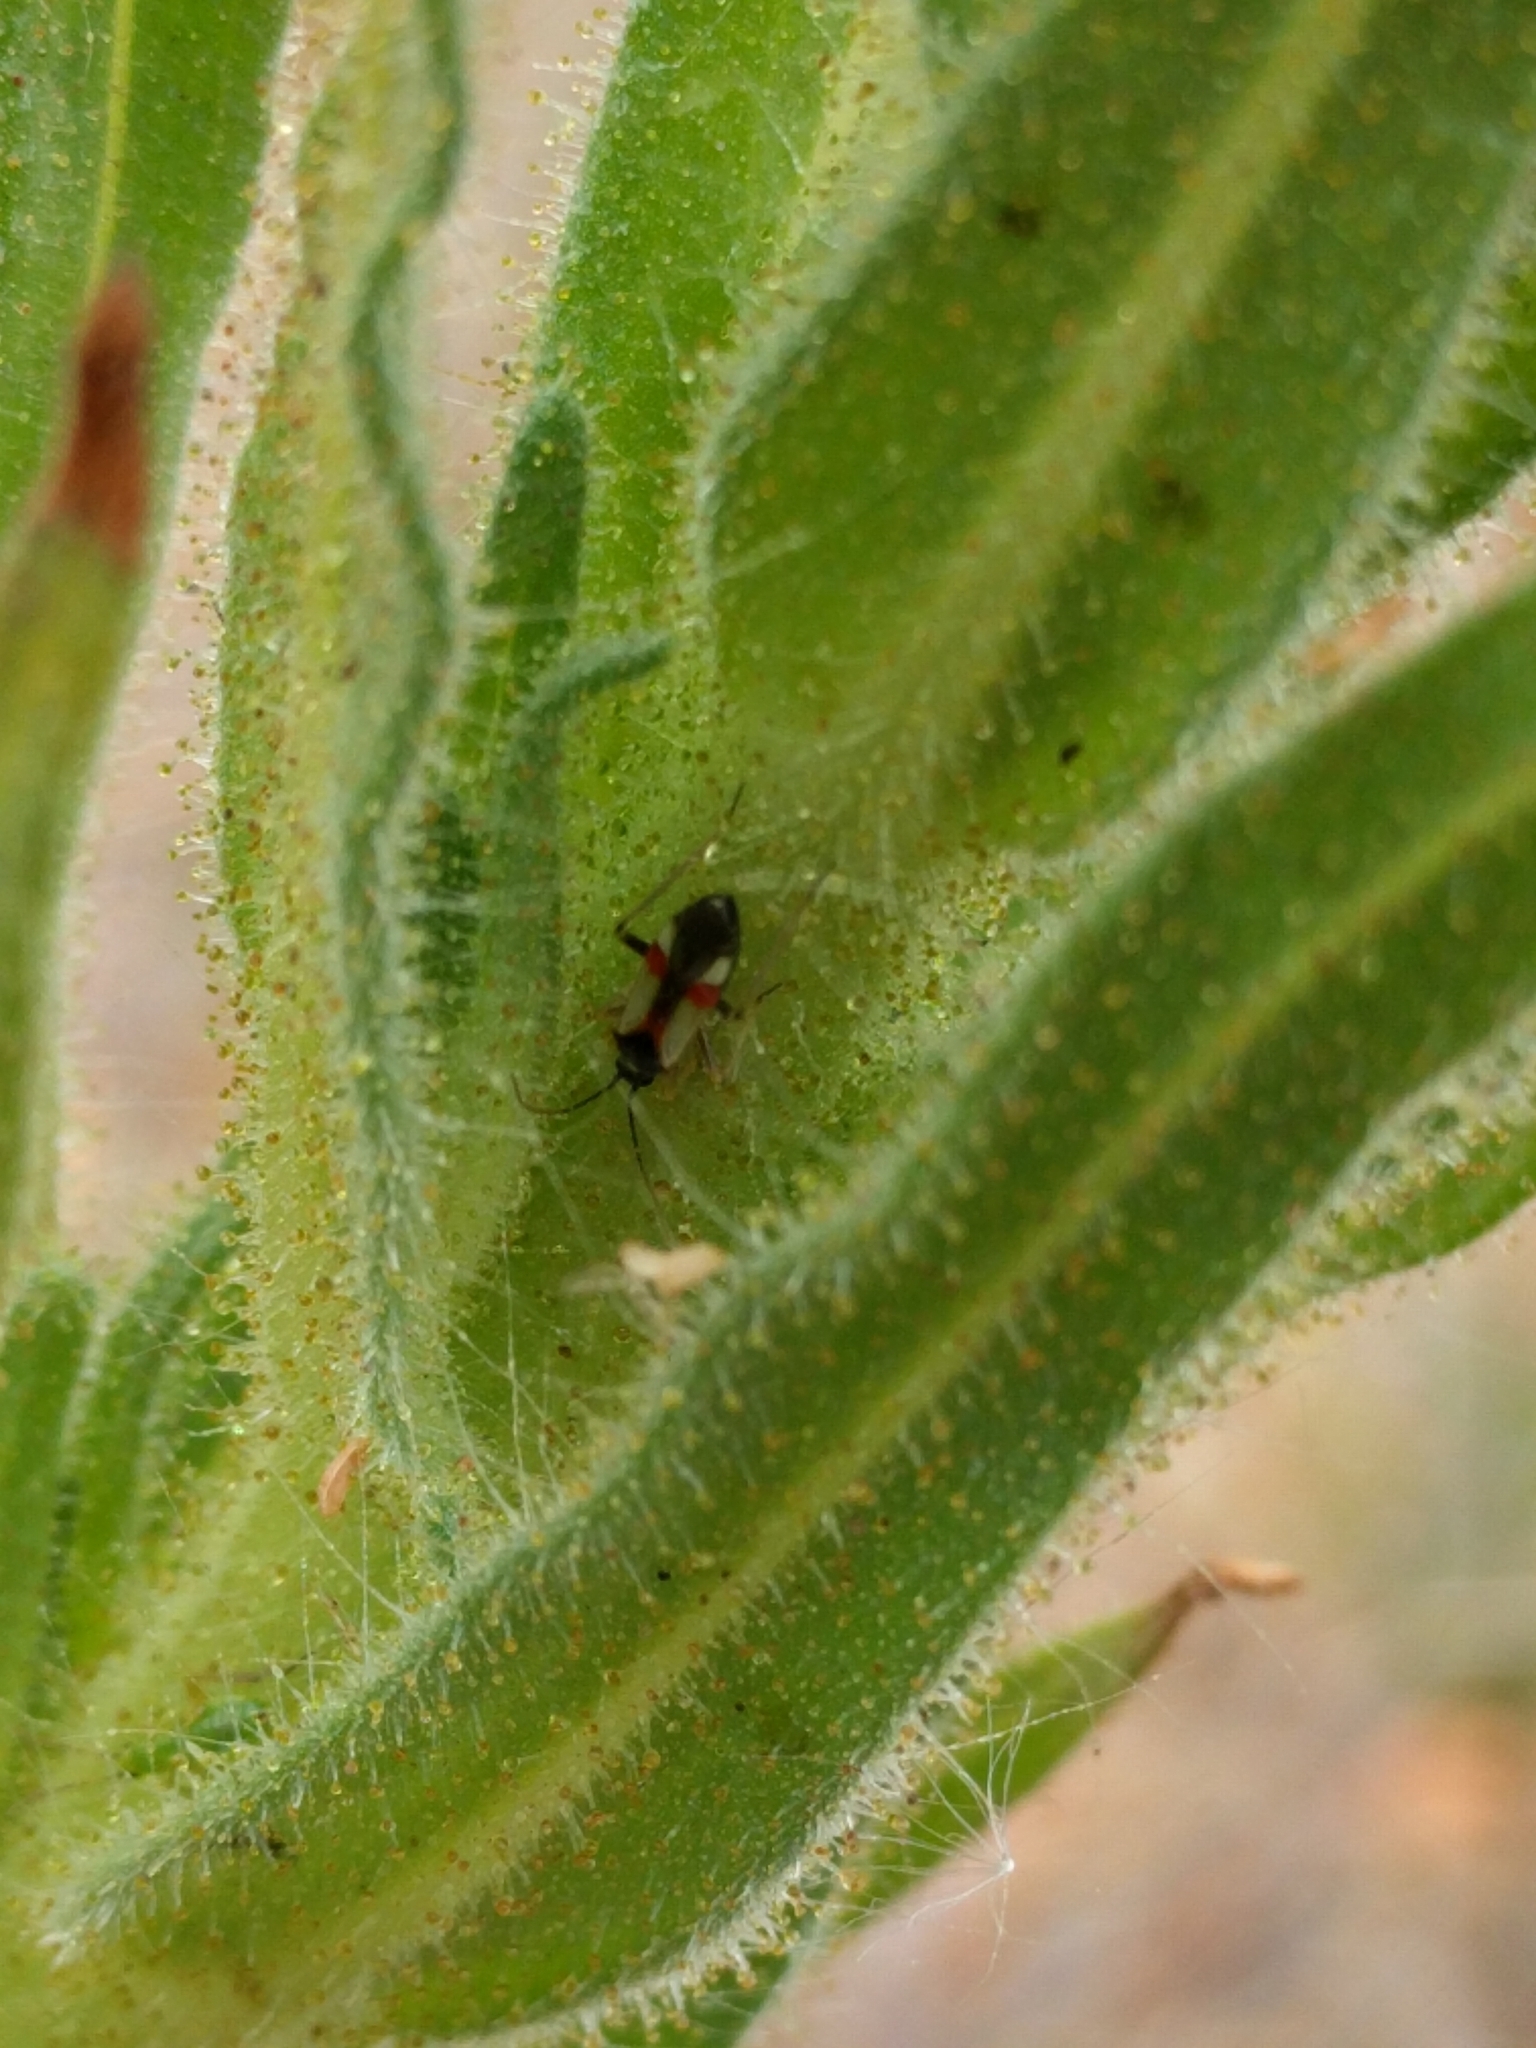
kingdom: Animalia
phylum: Arthropoda
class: Insecta
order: Hemiptera
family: Miridae
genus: Tupiocoris
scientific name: Tupiocoris californicus
